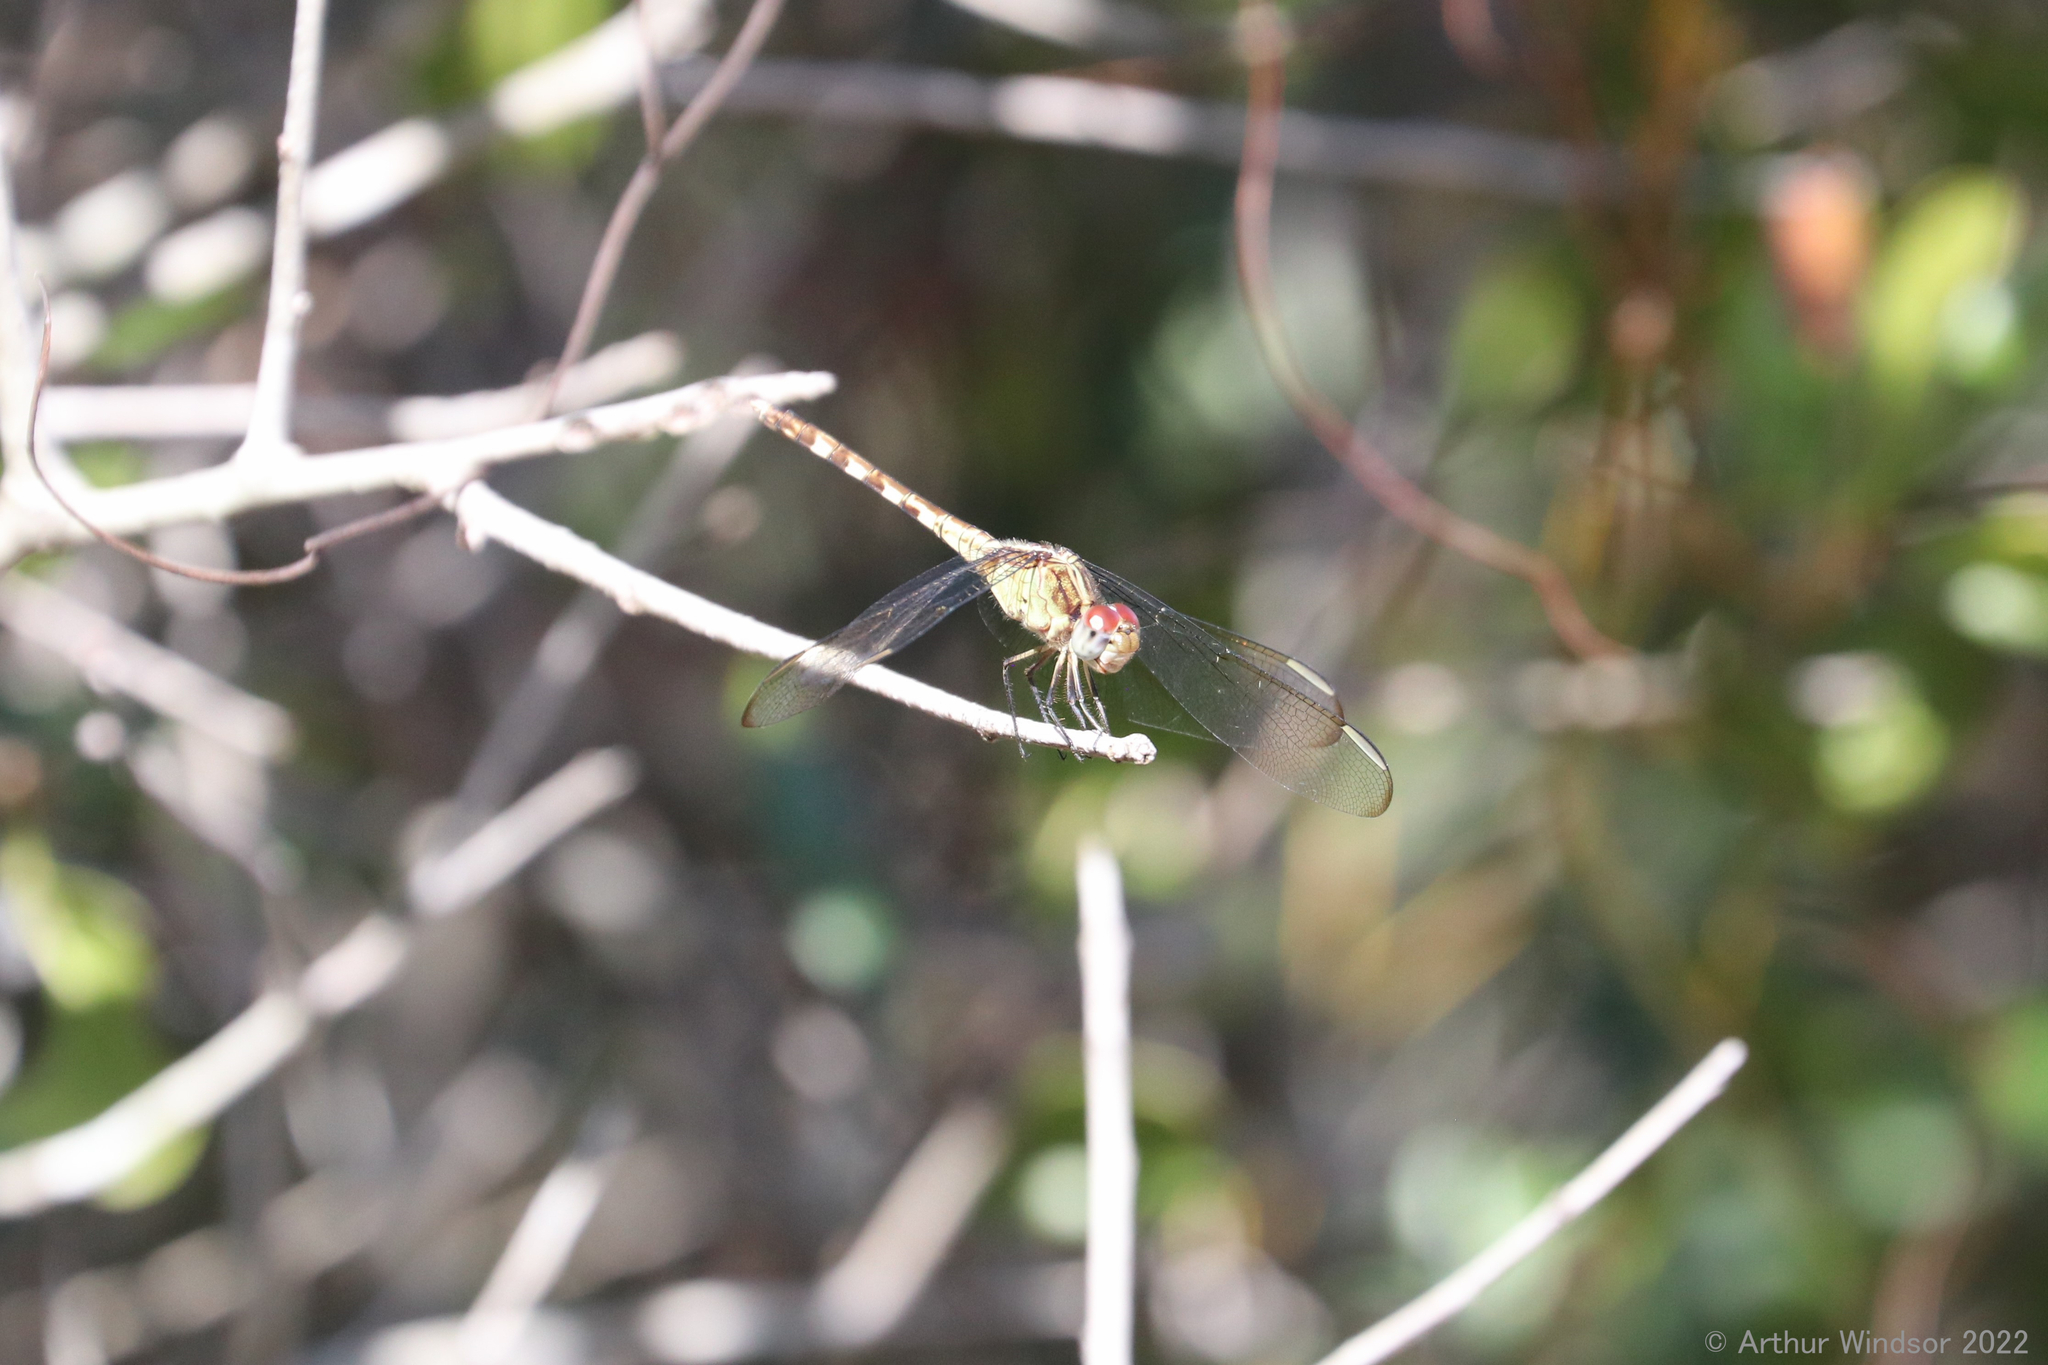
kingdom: Animalia
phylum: Arthropoda
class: Insecta
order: Odonata
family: Libellulidae
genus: Erythrodiplax
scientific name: Erythrodiplax umbrata
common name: Band-winged dragonlet
